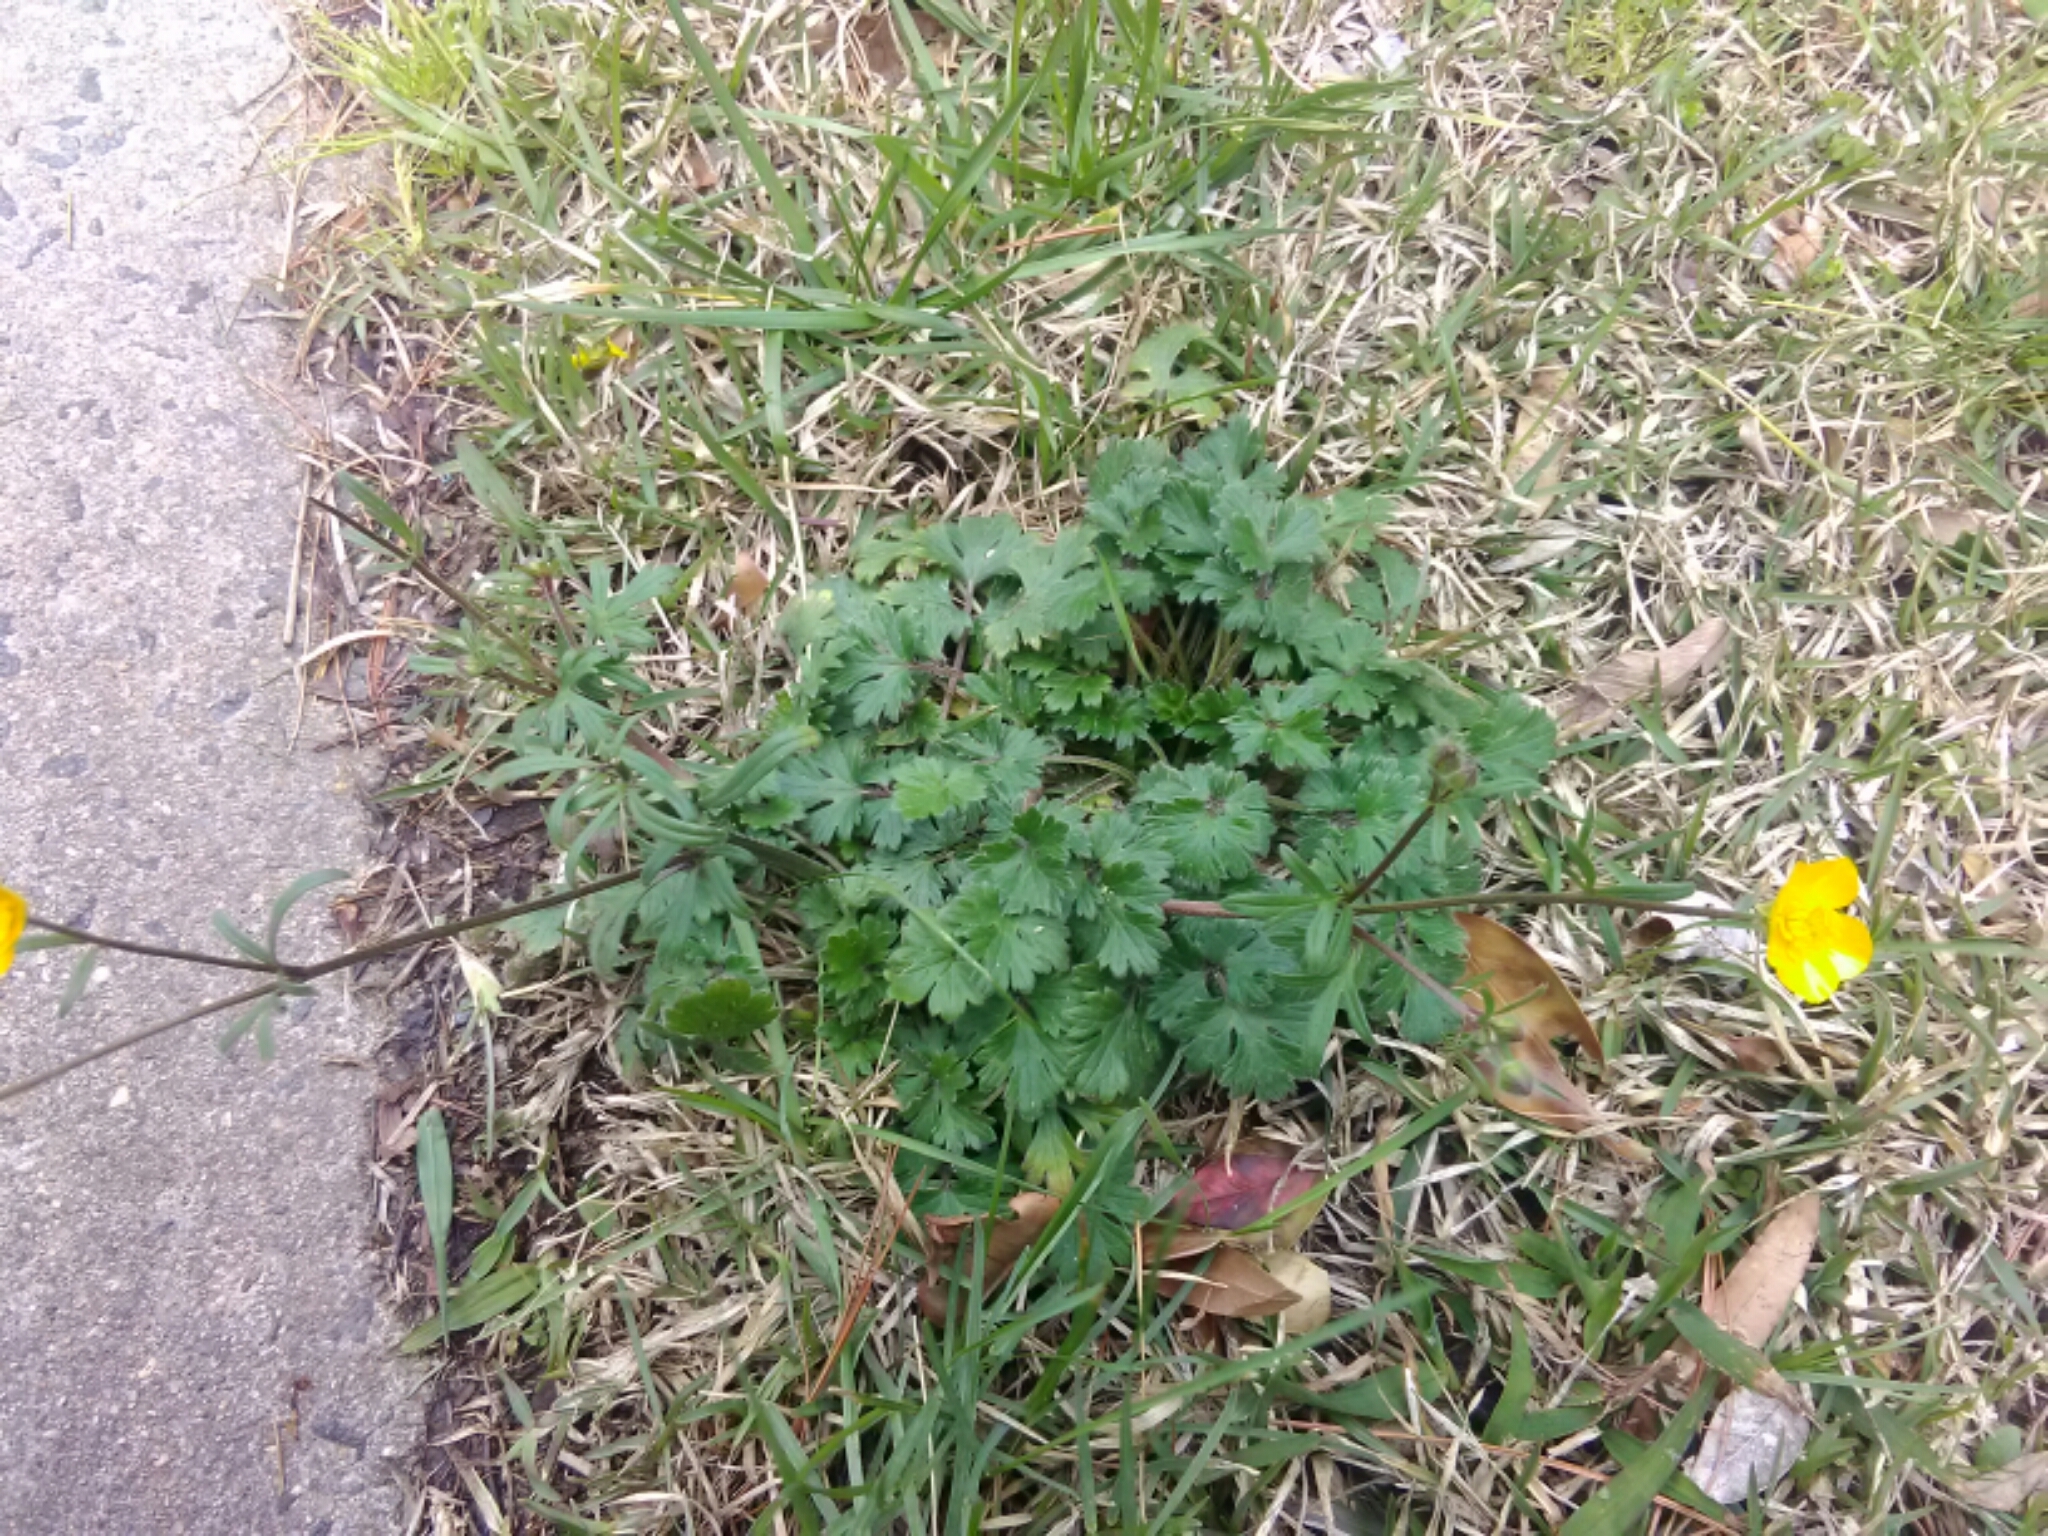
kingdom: Plantae
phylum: Tracheophyta
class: Magnoliopsida
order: Ranunculales
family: Ranunculaceae
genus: Ranunculus
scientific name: Ranunculus bulbosus
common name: Bulbous buttercup
